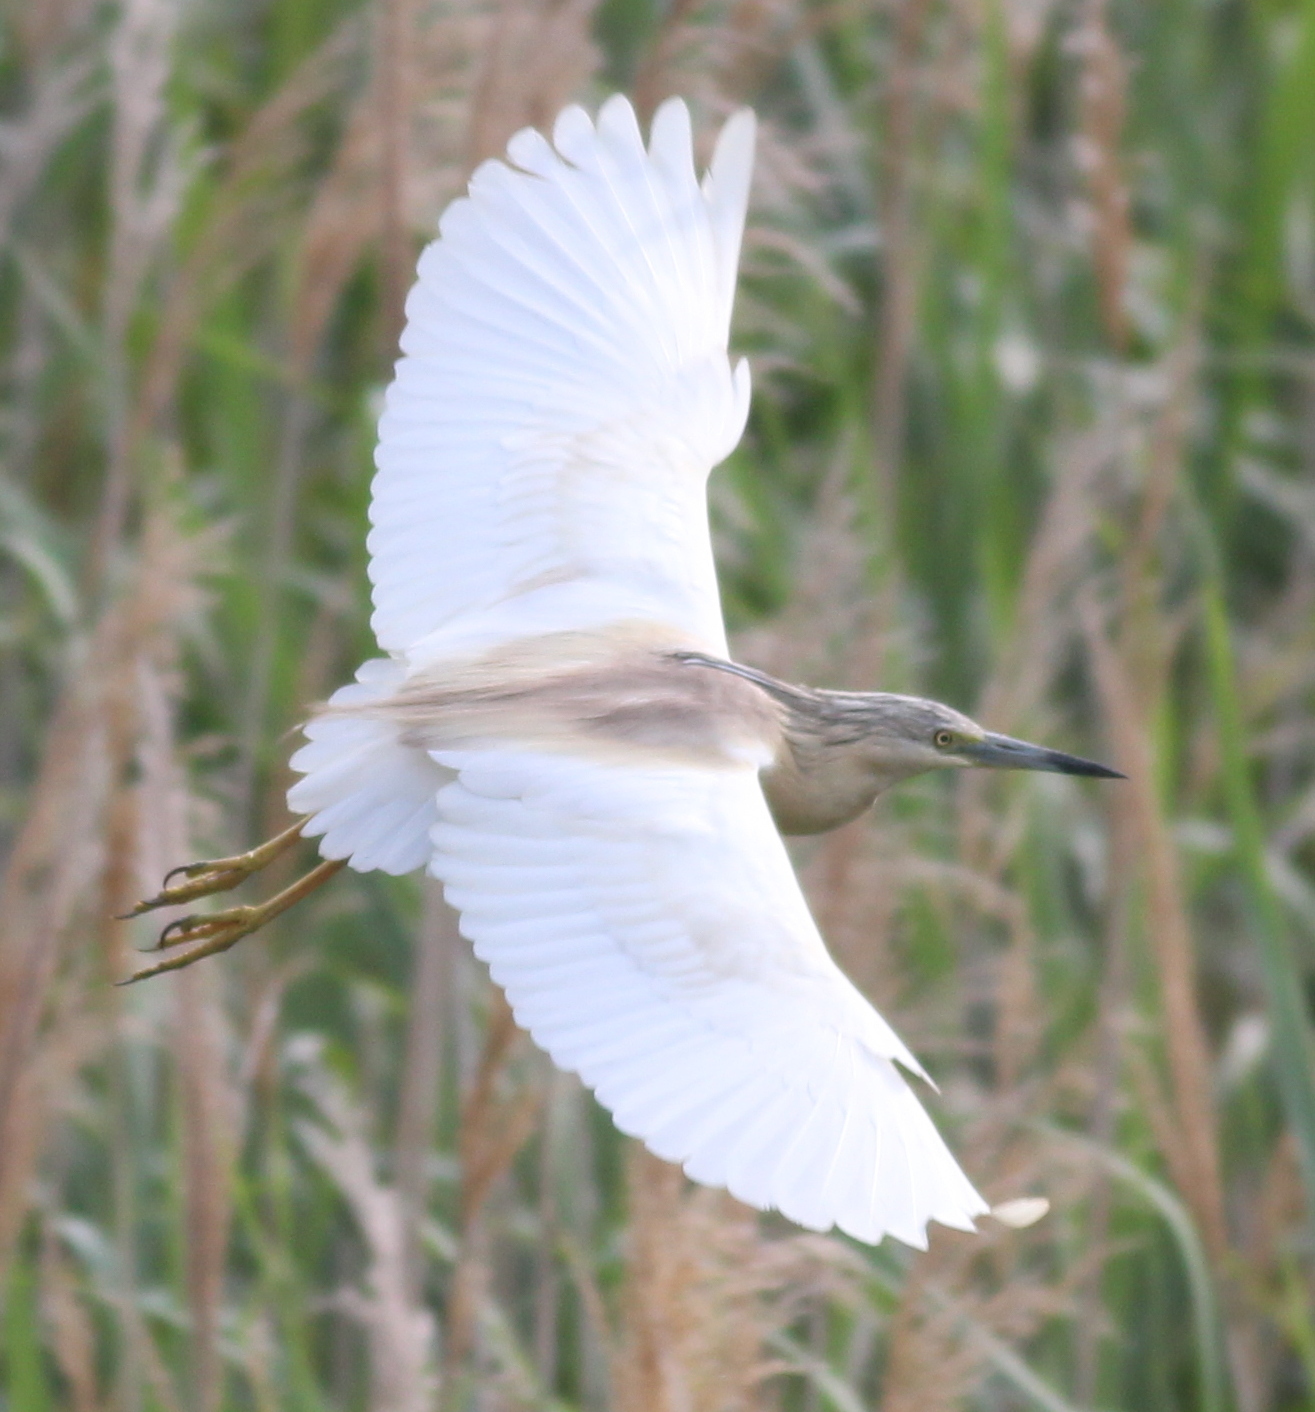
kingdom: Animalia
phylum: Chordata
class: Aves
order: Pelecaniformes
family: Ardeidae
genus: Ardeola
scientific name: Ardeola ralloides
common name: Squacco heron
